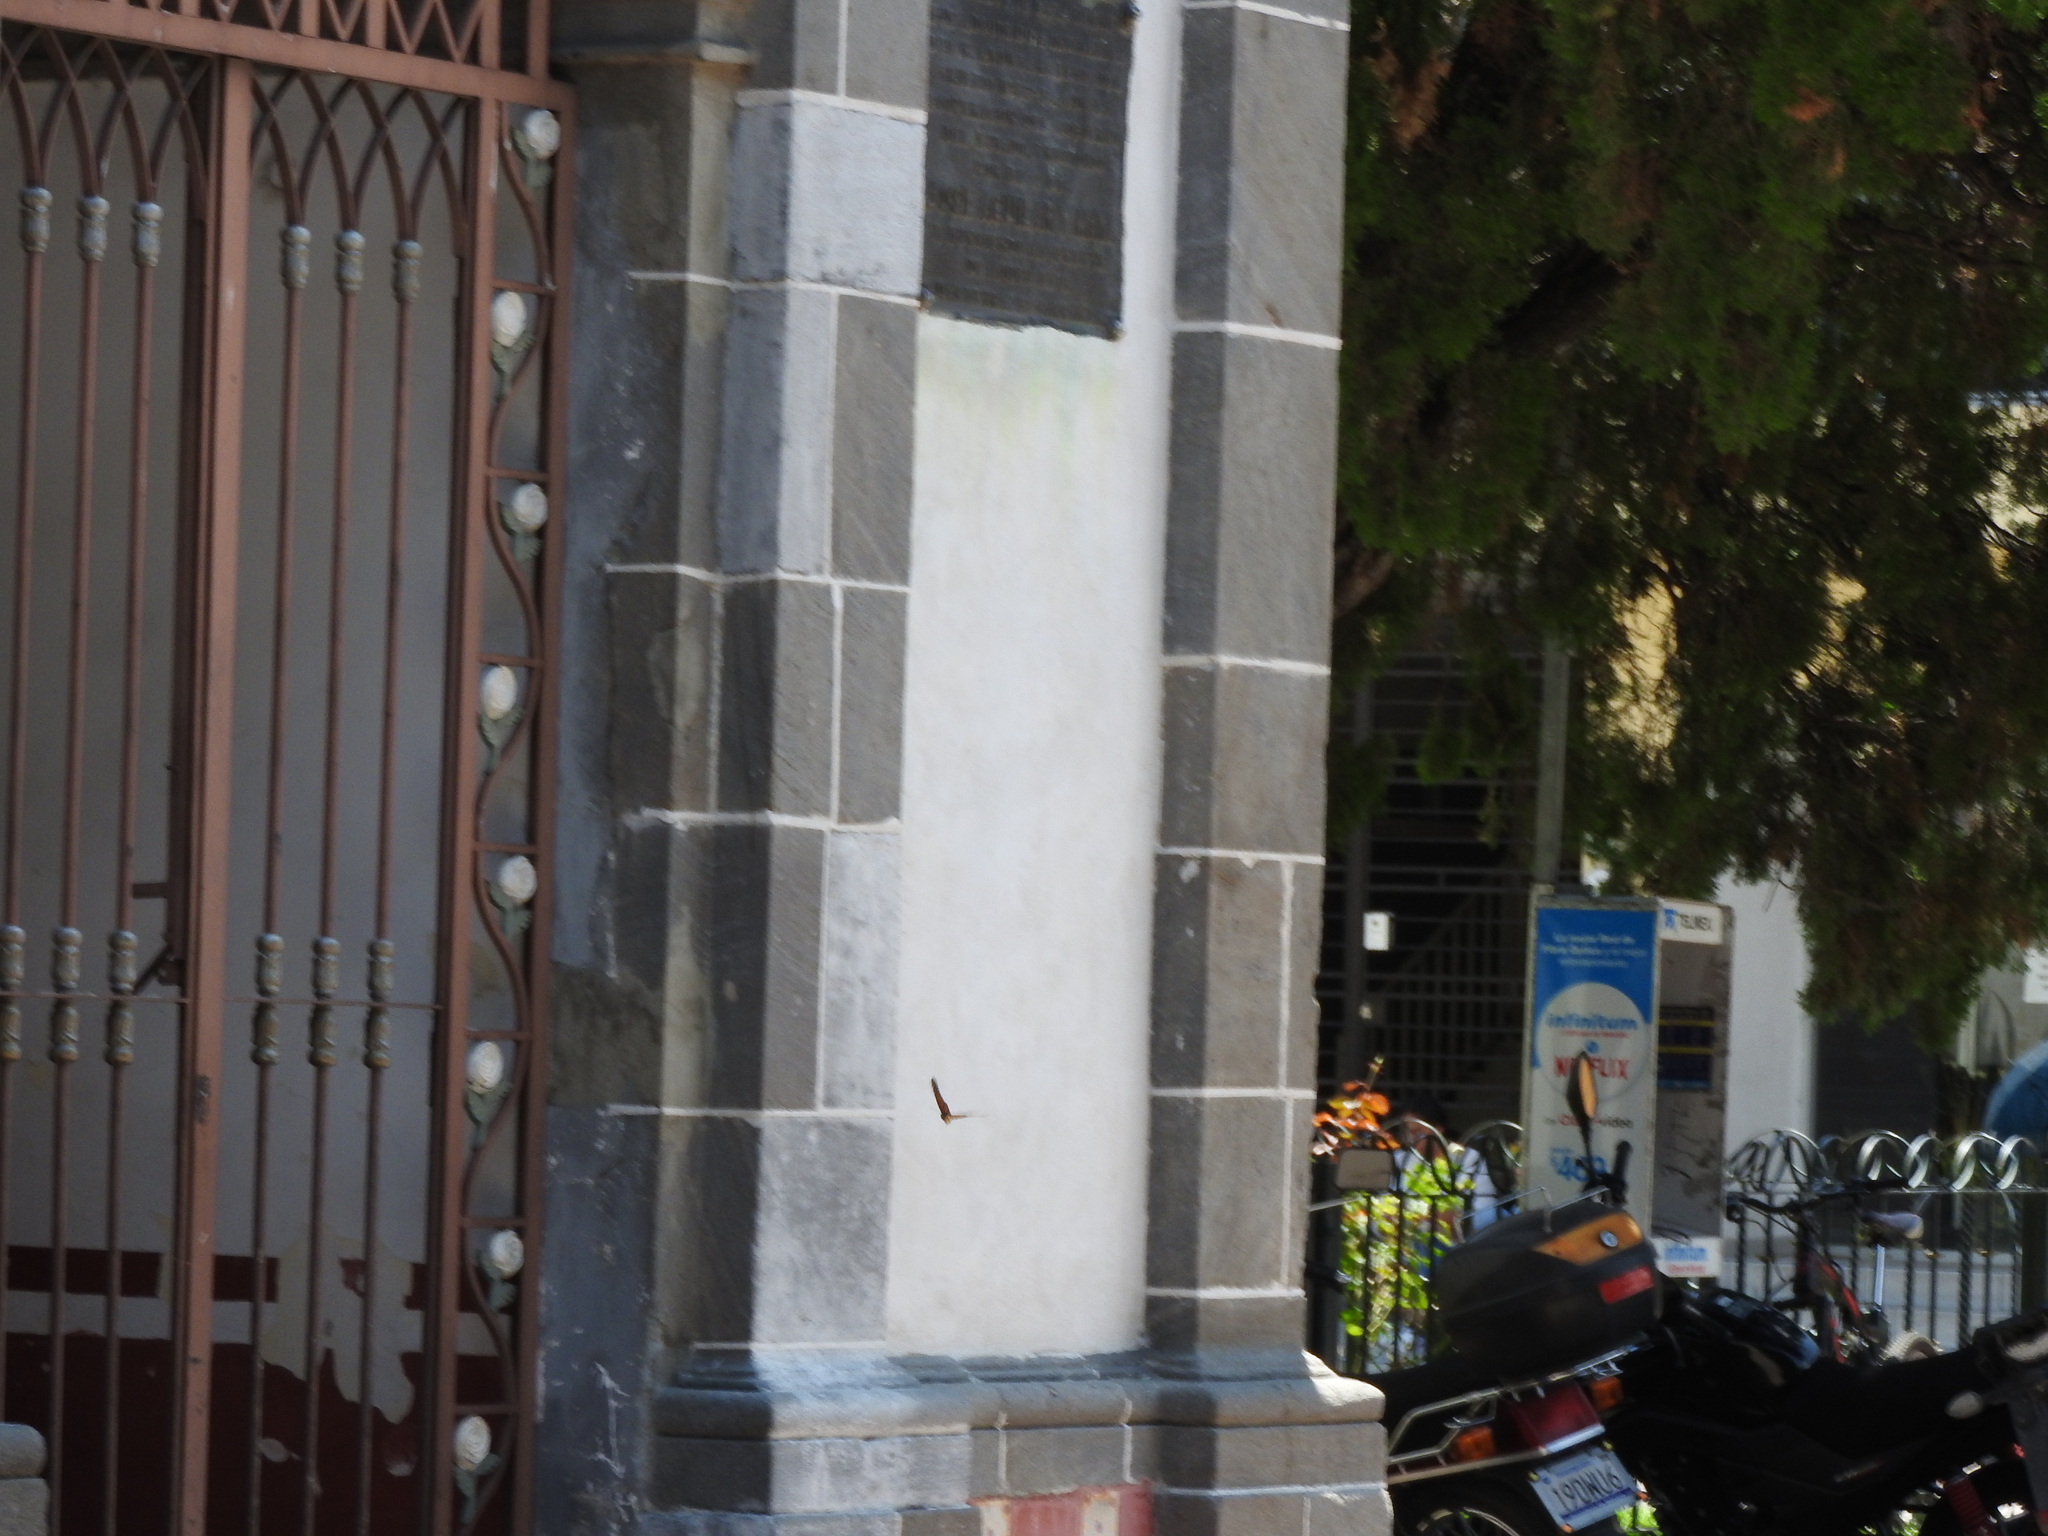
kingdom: Animalia
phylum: Arthropoda
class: Insecta
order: Lepidoptera
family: Nymphalidae
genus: Danaus
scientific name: Danaus plexippus
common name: Monarch
